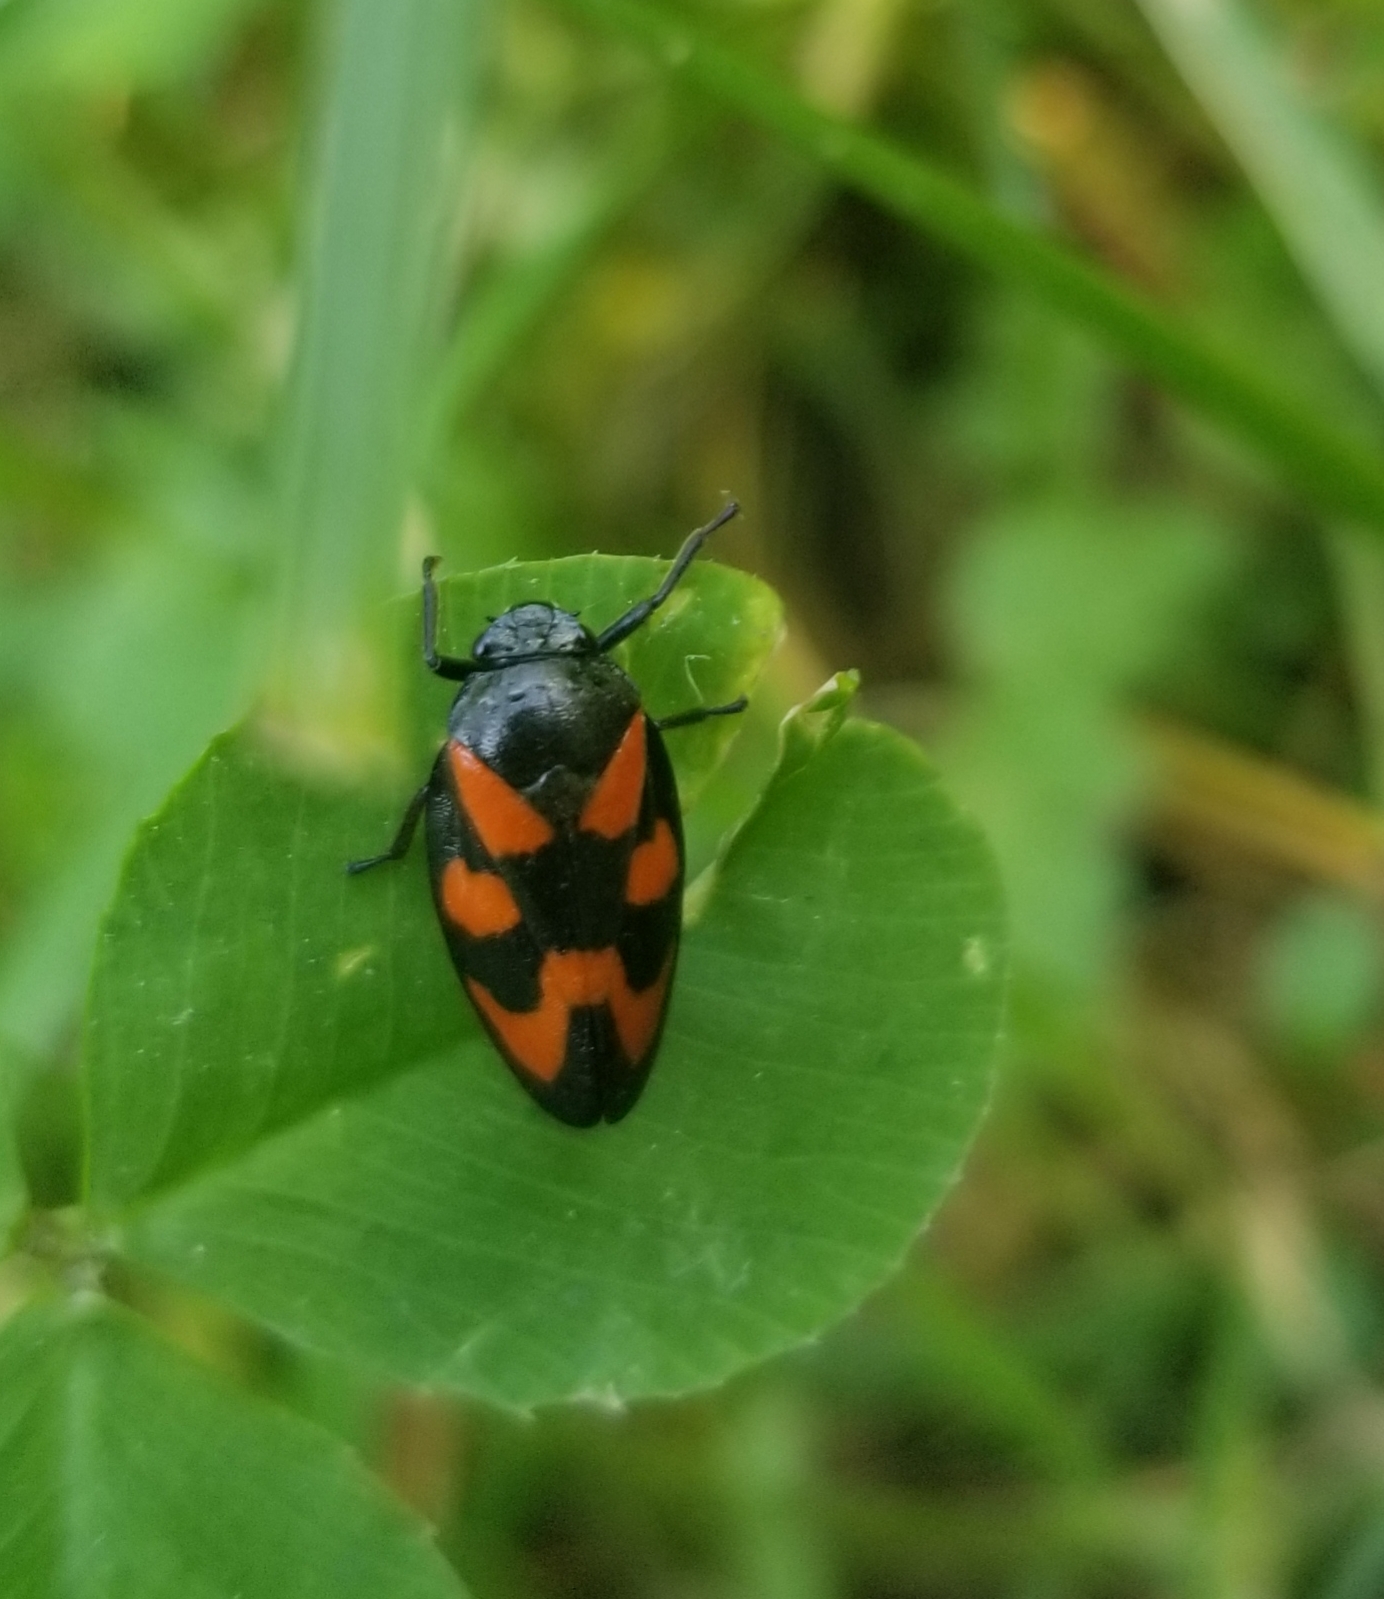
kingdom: Animalia
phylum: Arthropoda
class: Insecta
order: Hemiptera
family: Cercopidae
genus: Cercopis
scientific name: Cercopis vulnerata
